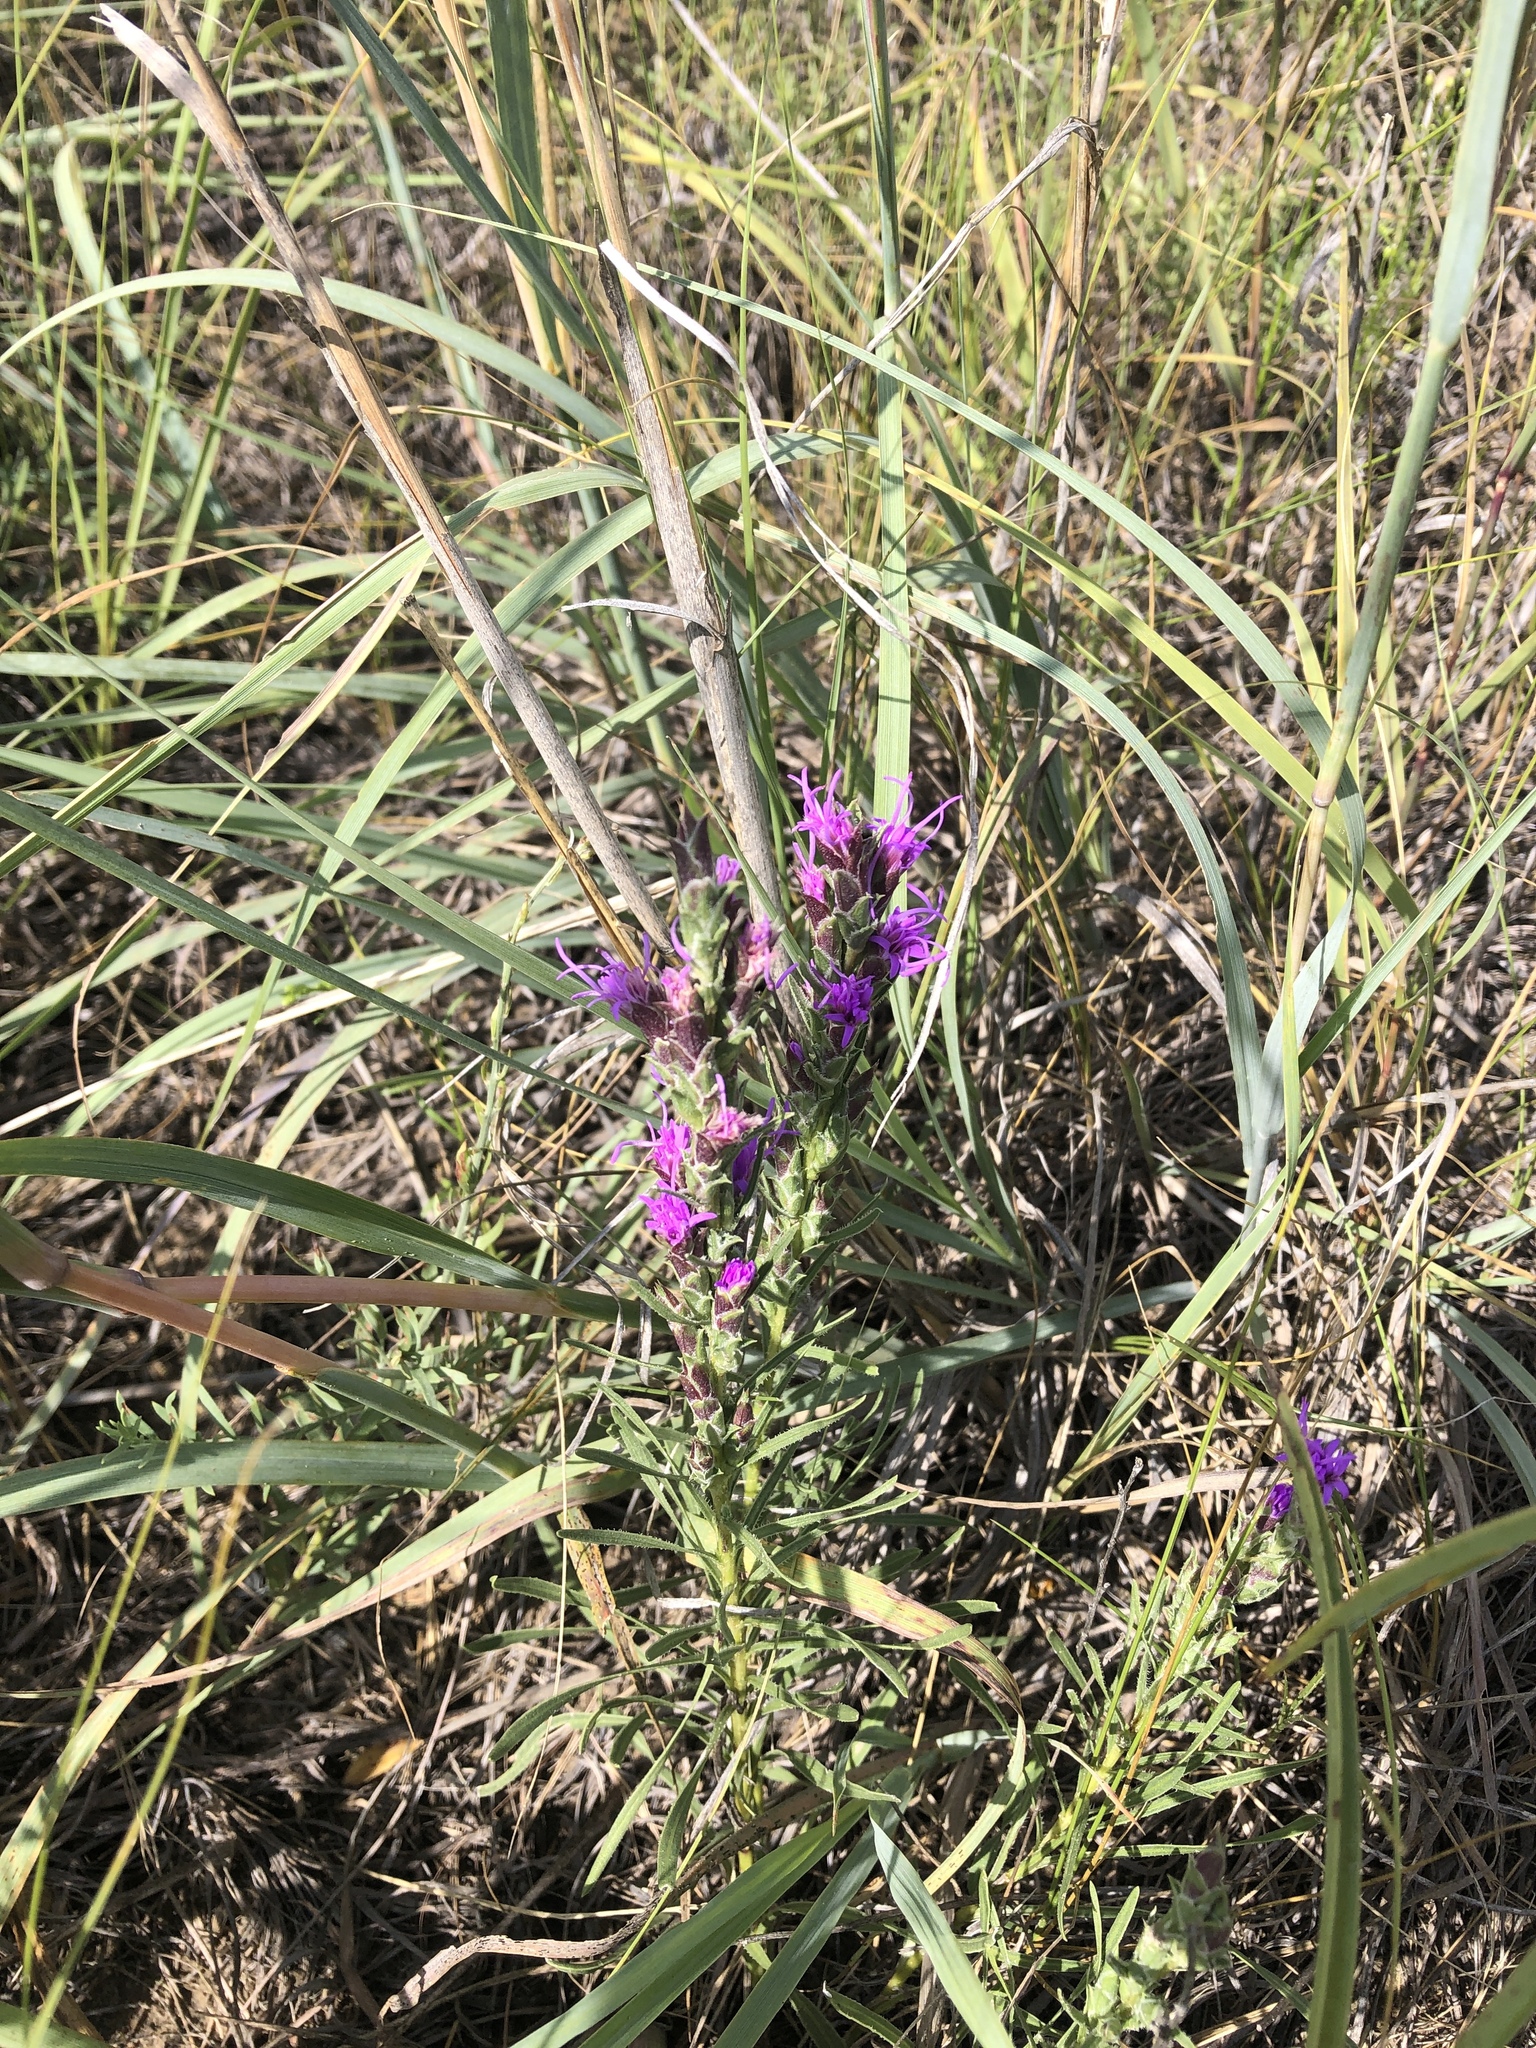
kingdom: Plantae
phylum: Tracheophyta
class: Magnoliopsida
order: Asterales
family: Asteraceae
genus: Liatris
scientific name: Liatris punctata
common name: Dotted gayfeather
